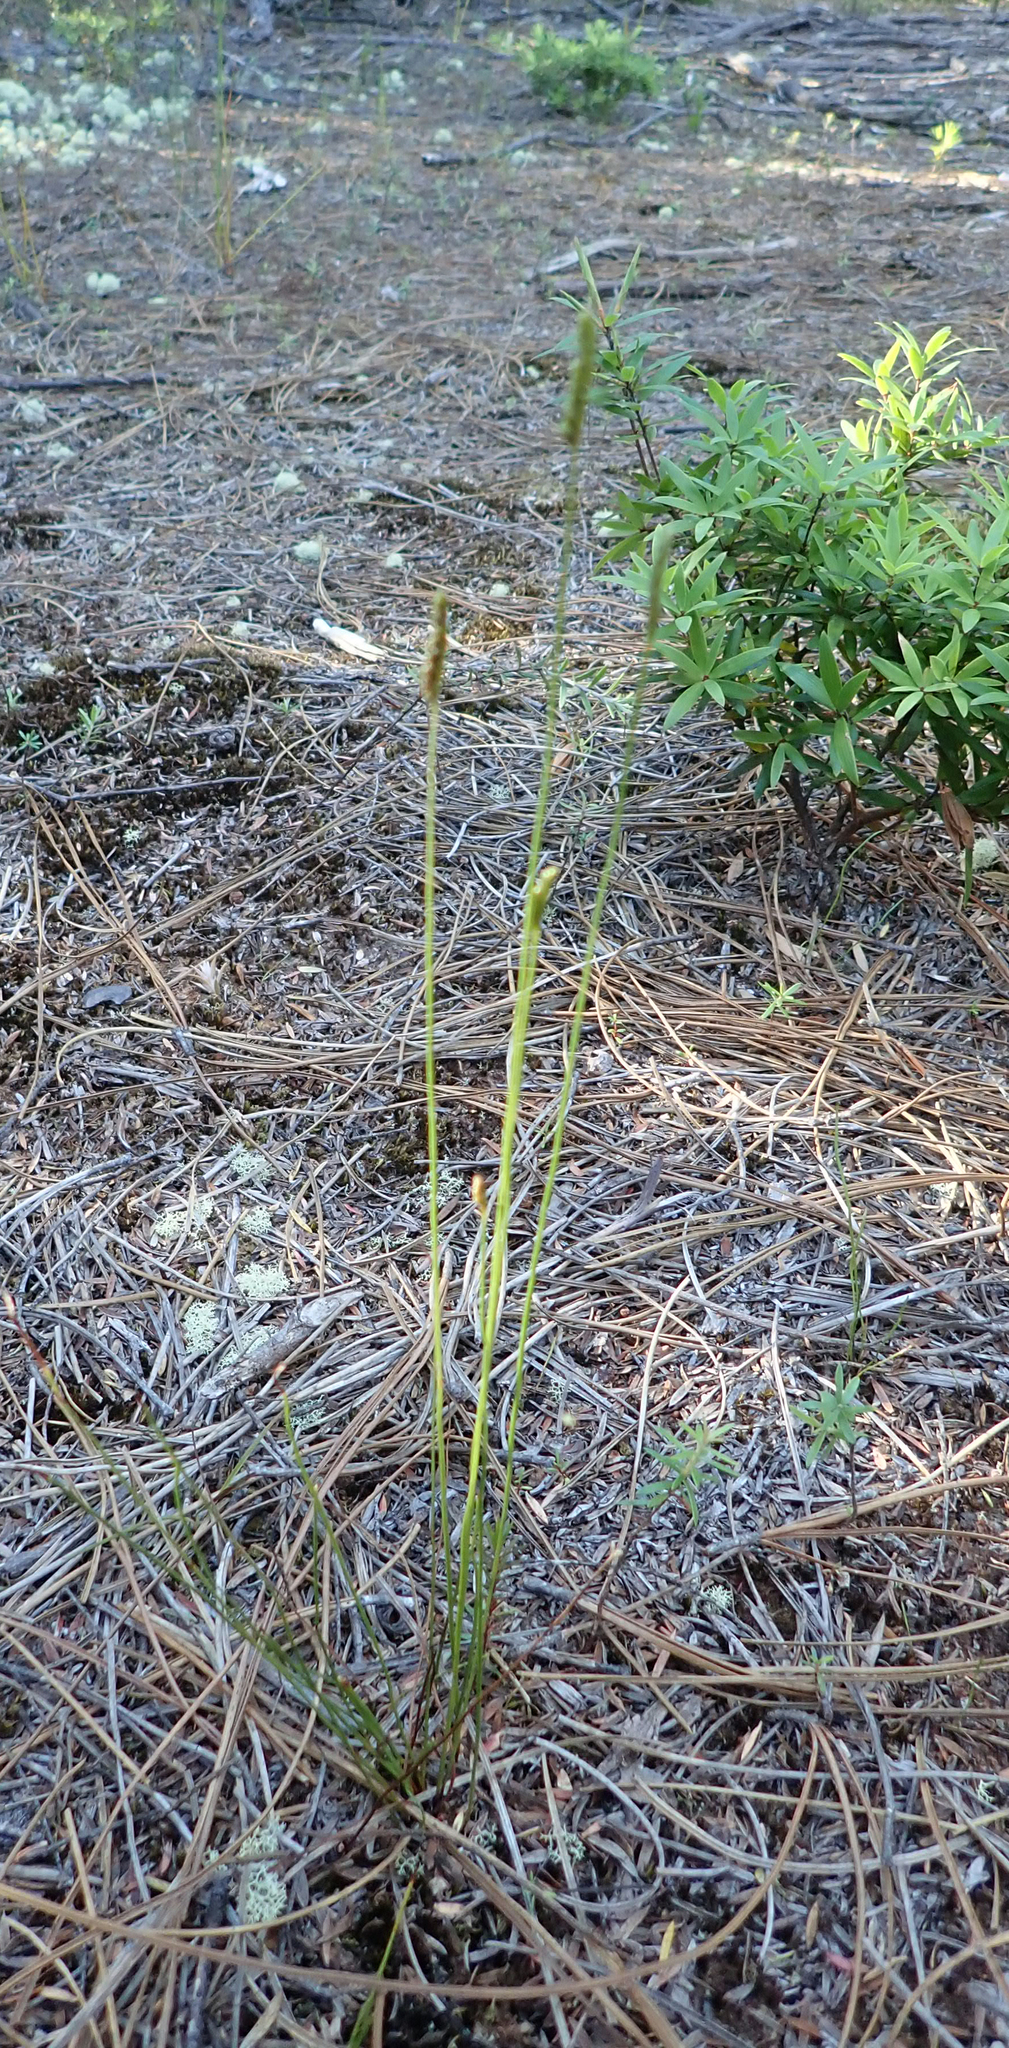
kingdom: Plantae
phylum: Tracheophyta
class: Polypodiopsida
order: Schizaeales
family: Schizaeaceae
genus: Microschizaea
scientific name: Microschizaea fistulosa
